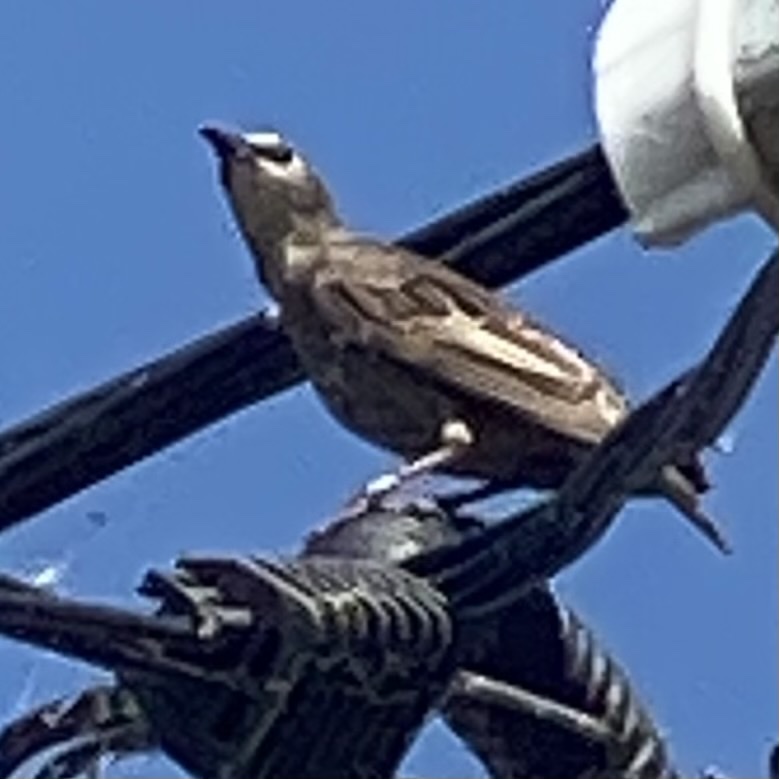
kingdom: Animalia
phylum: Chordata
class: Aves
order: Passeriformes
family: Sturnidae
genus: Sturnus
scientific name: Sturnus vulgaris
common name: Common starling
